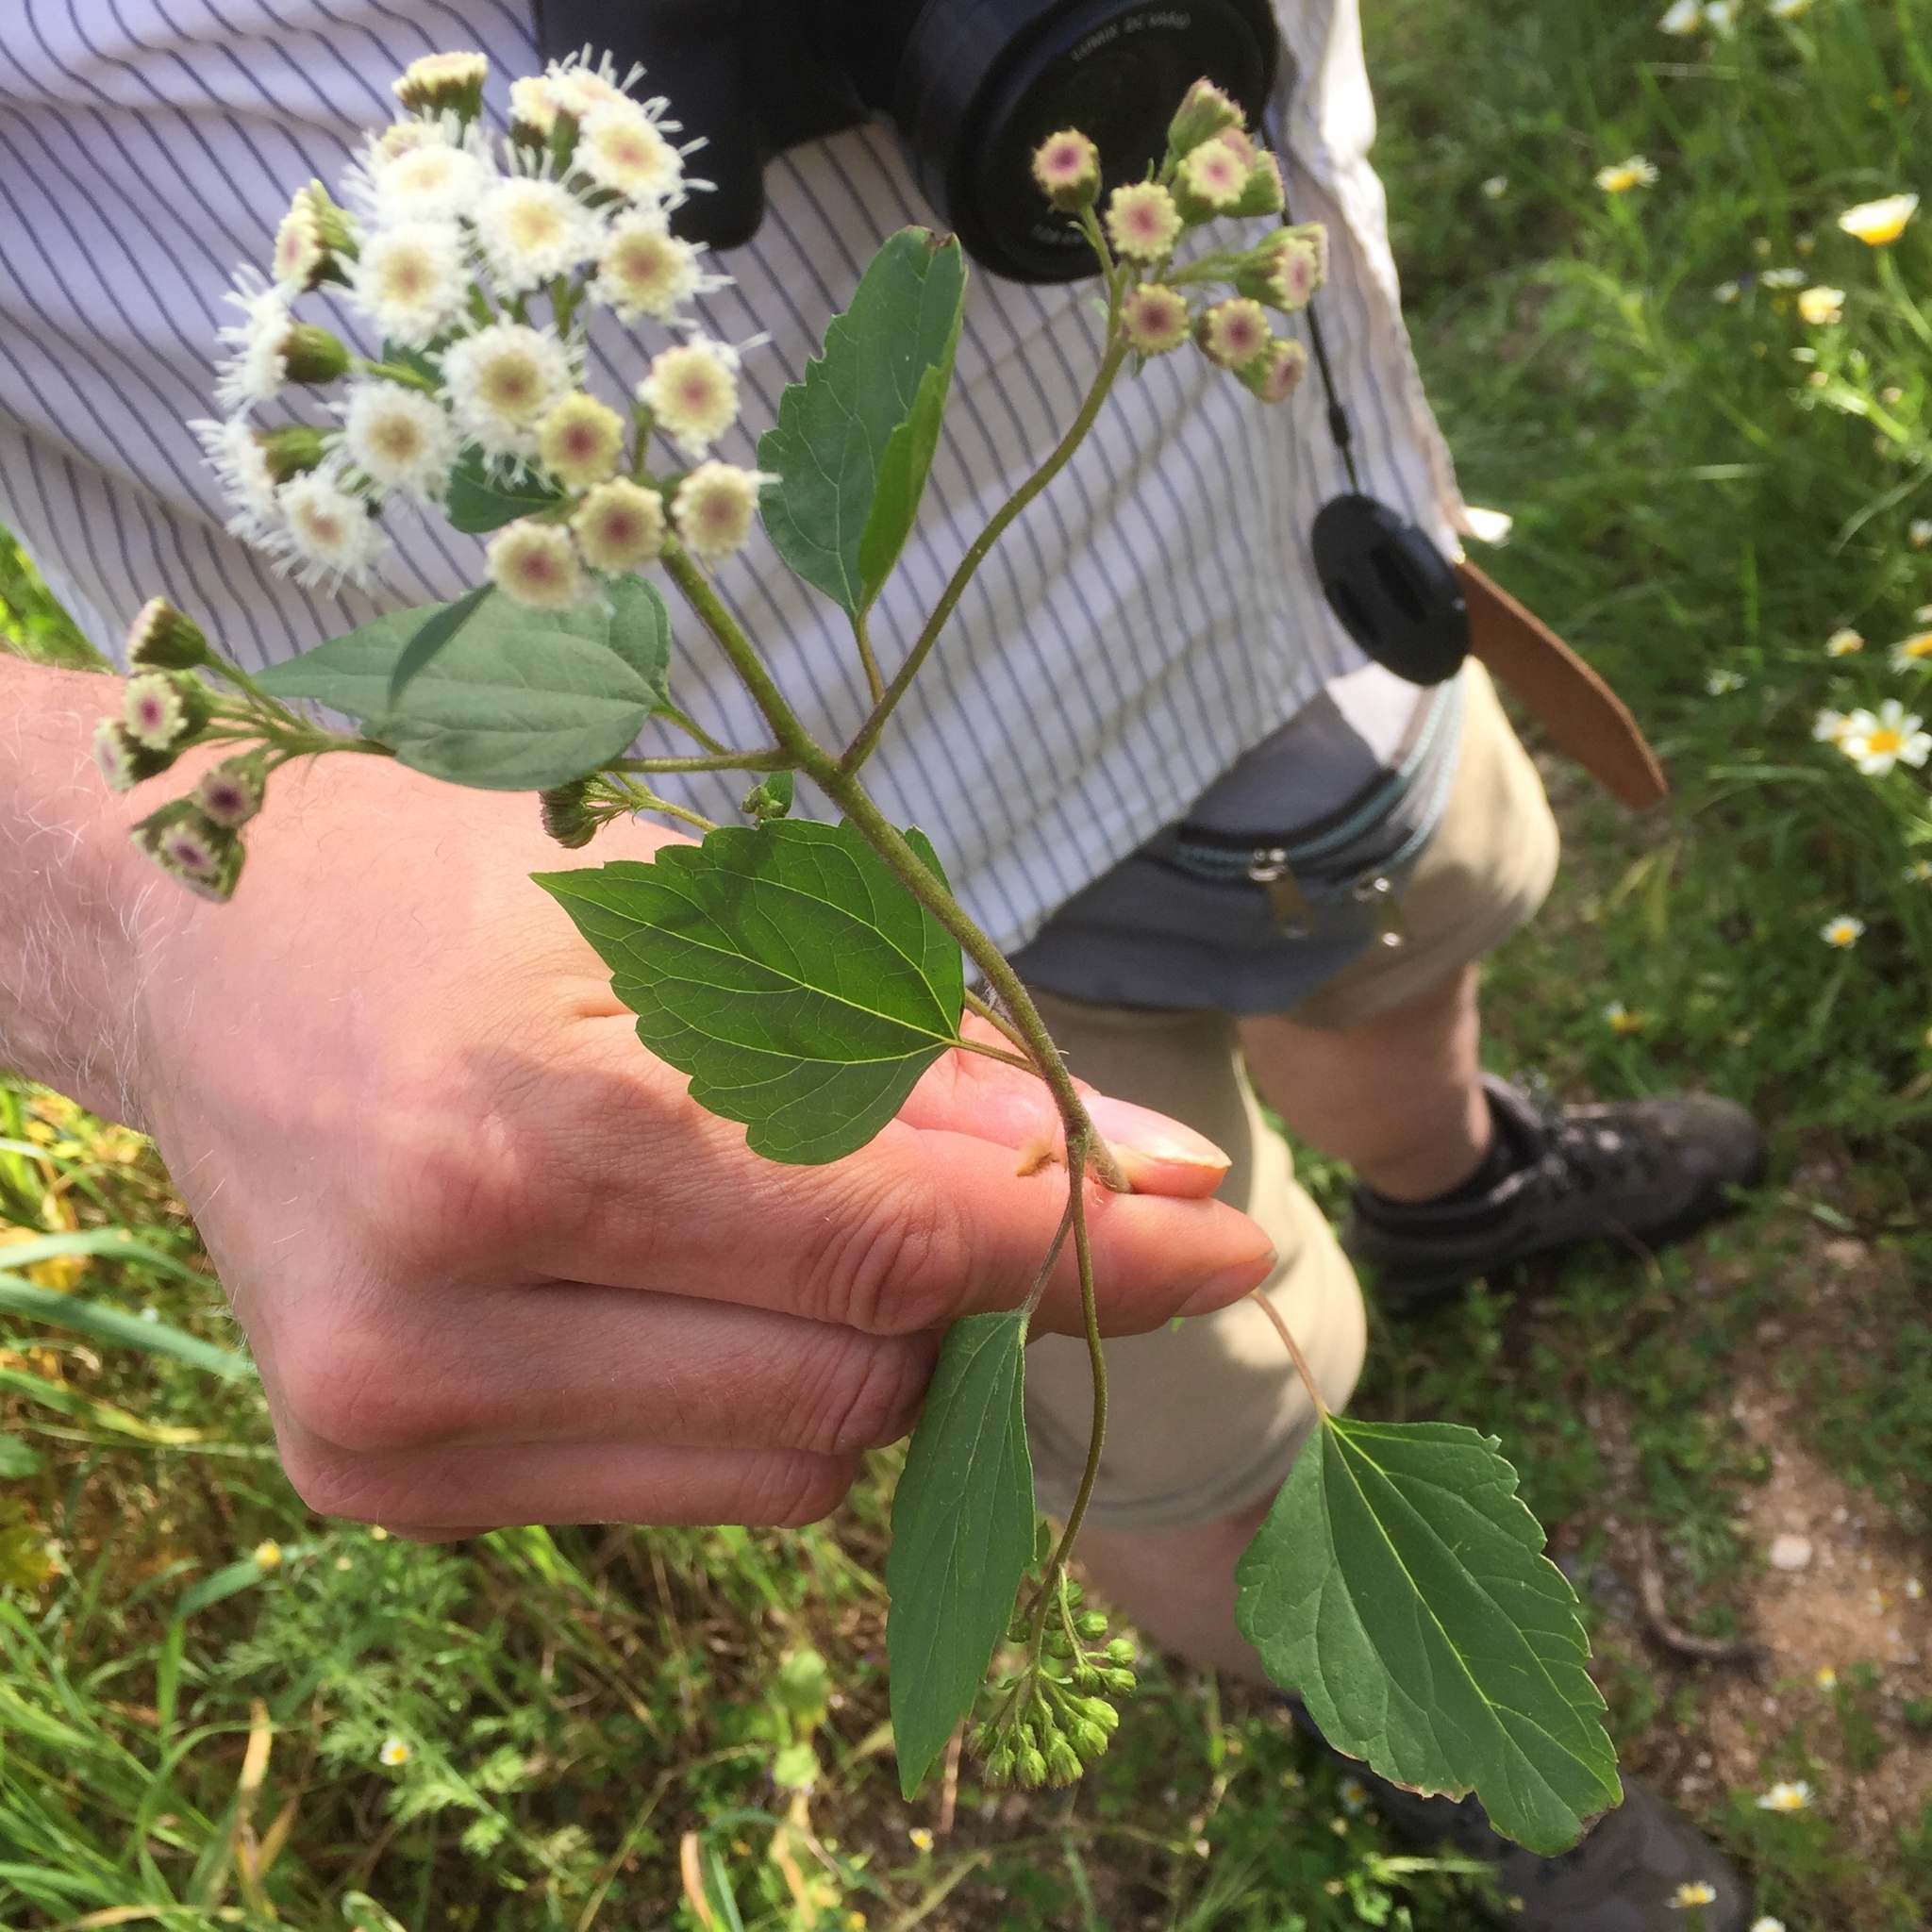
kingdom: Plantae
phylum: Tracheophyta
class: Magnoliopsida
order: Asterales
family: Asteraceae
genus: Ageratina
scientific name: Ageratina adenophora
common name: Sticky snakeroot
